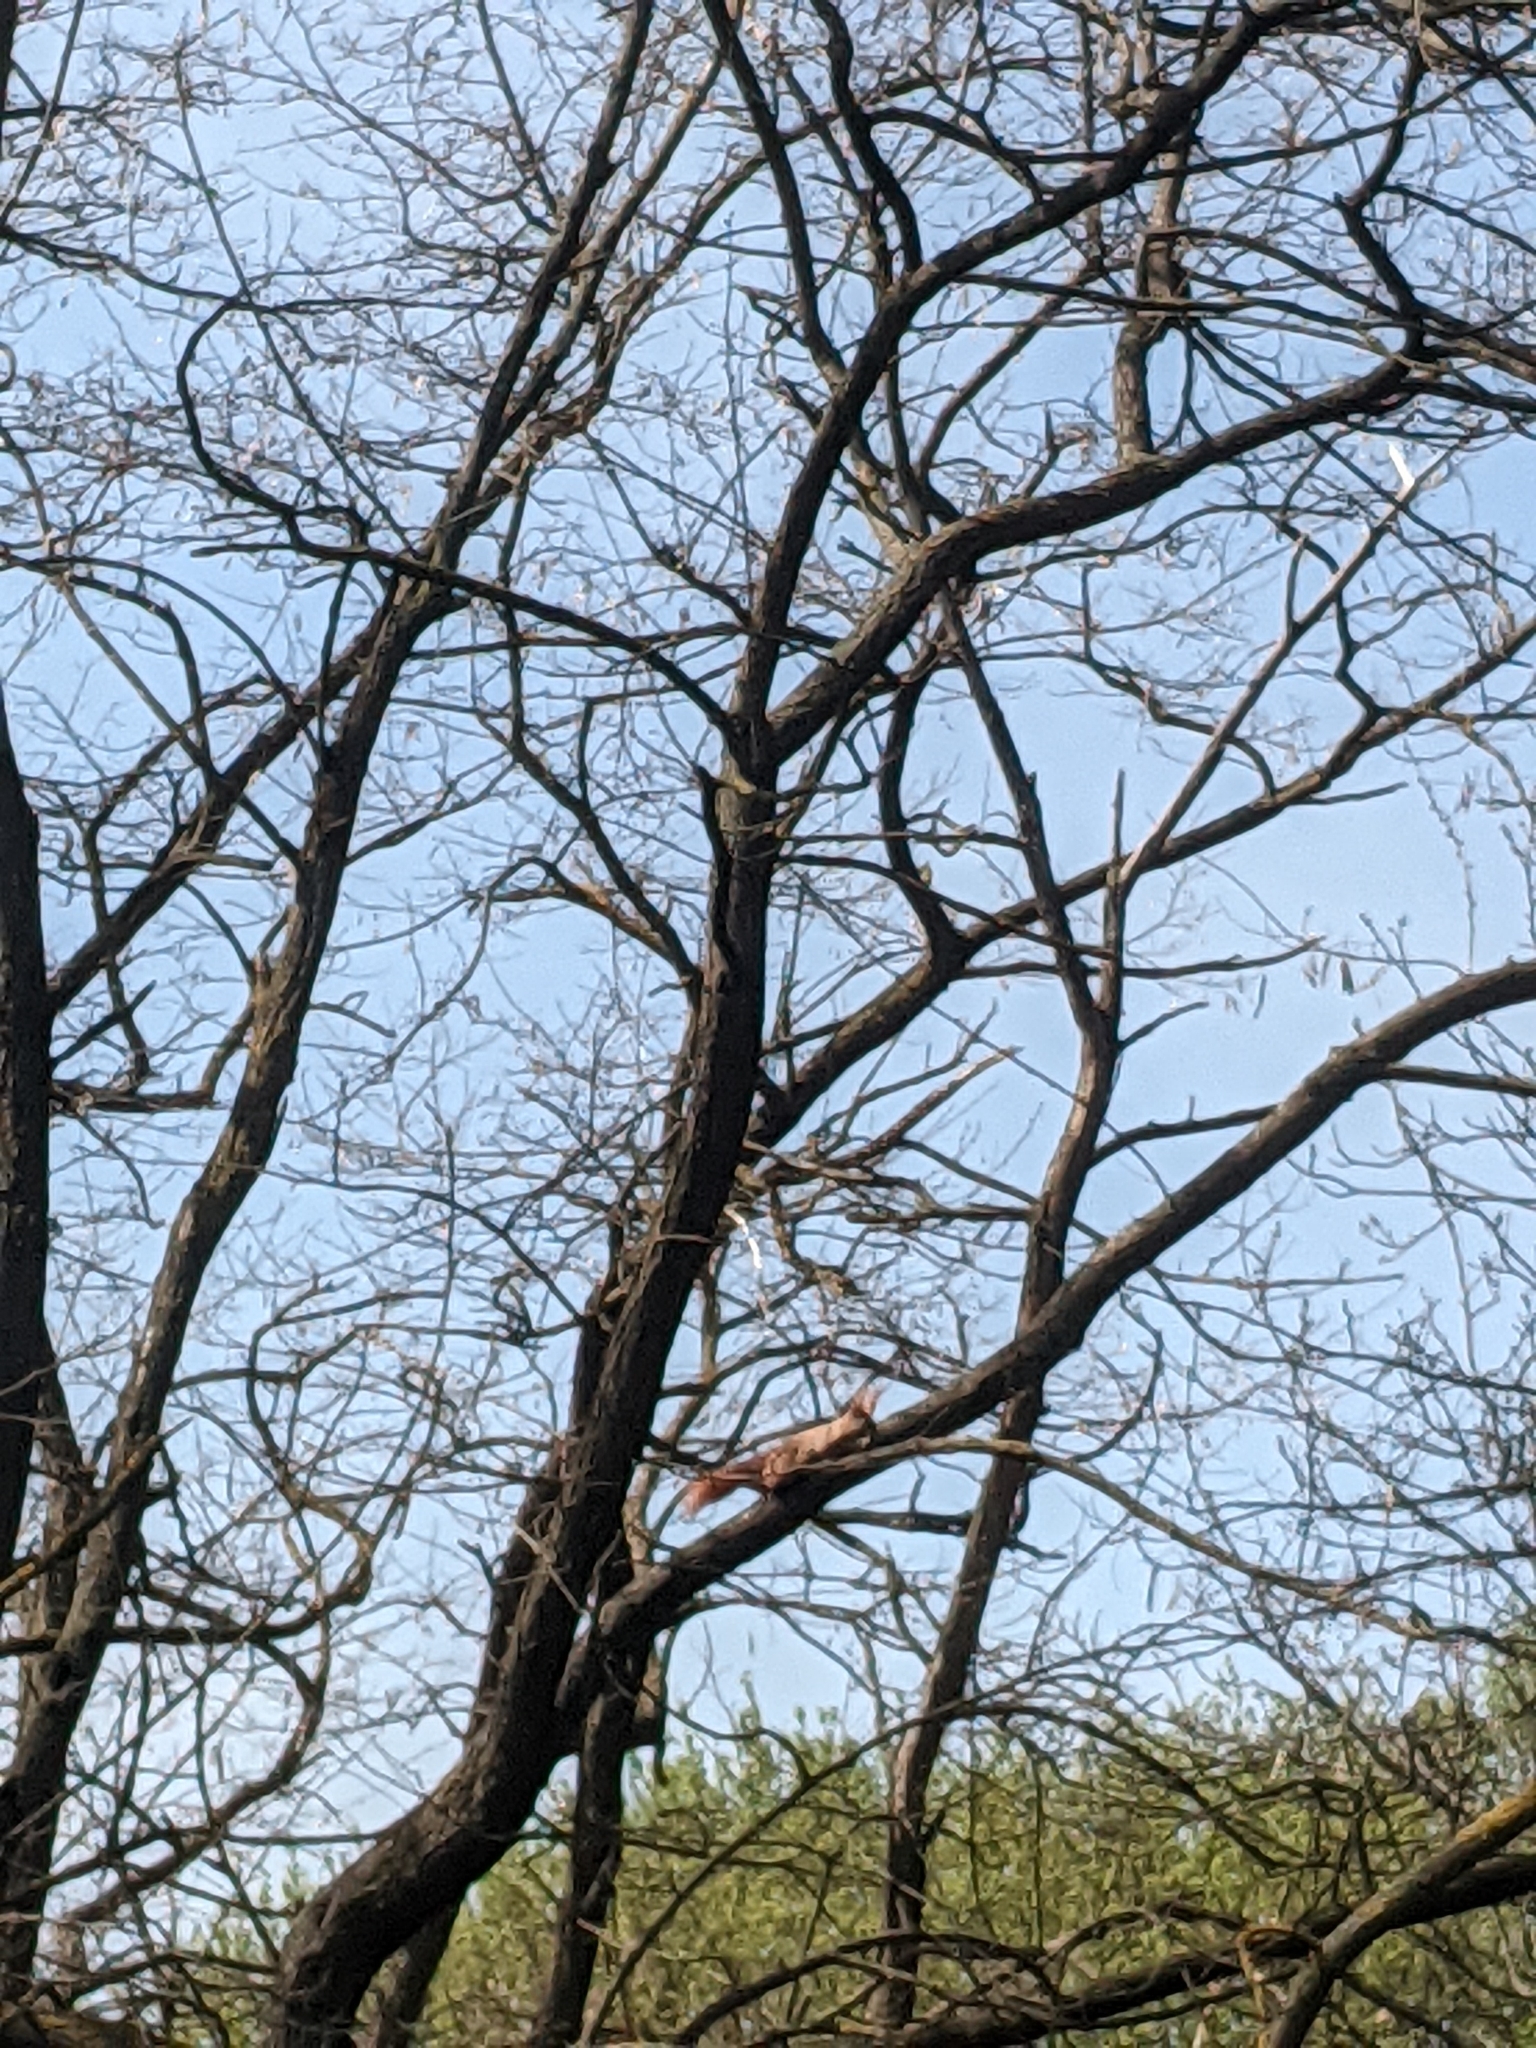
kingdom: Animalia
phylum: Chordata
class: Mammalia
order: Rodentia
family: Sciuridae
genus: Sciurus
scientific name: Sciurus vulgaris
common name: Eurasian red squirrel
